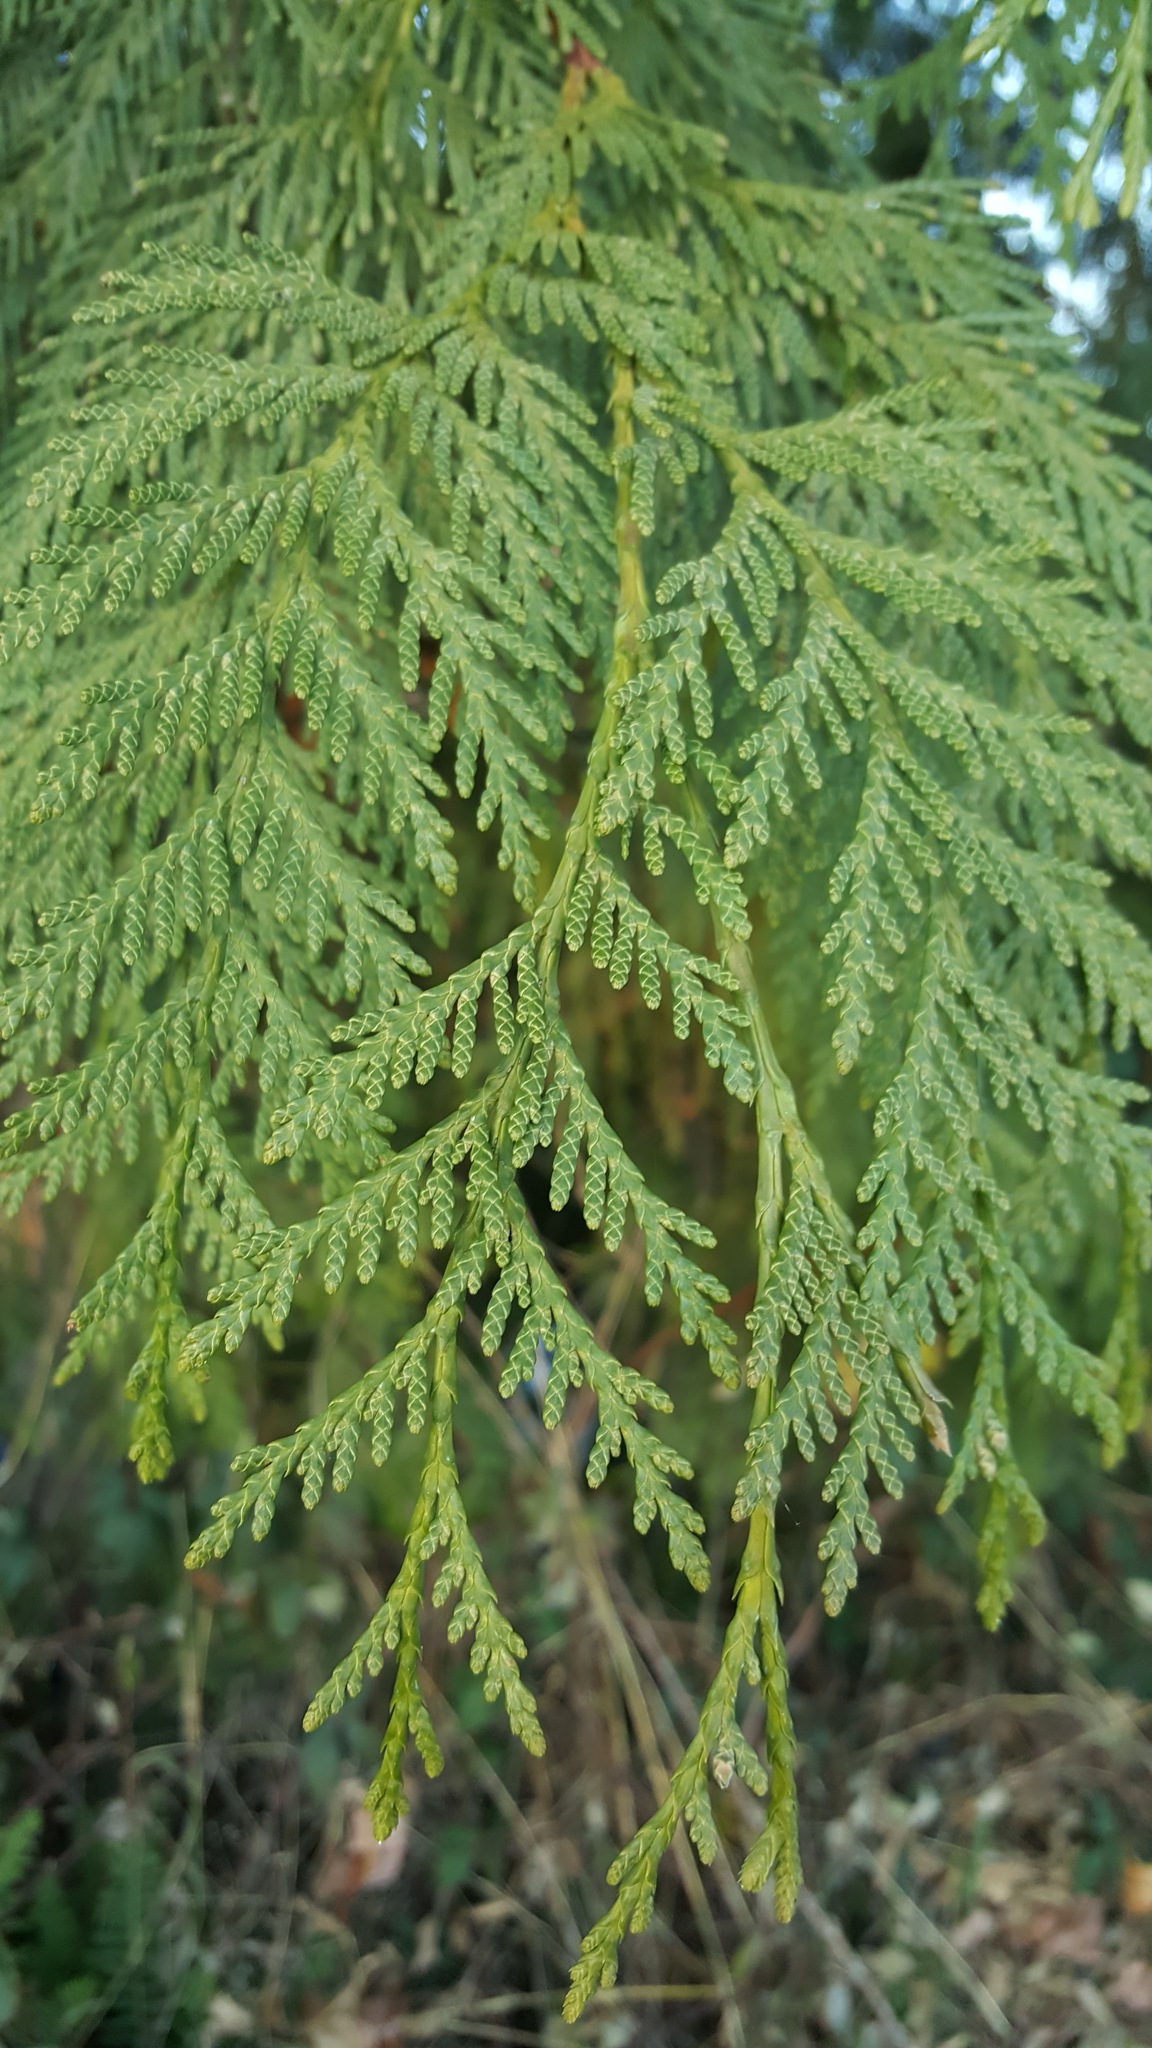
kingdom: Plantae
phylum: Tracheophyta
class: Pinopsida
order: Pinales
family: Cupressaceae
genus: Thuja
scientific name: Thuja plicata
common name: Western red-cedar
